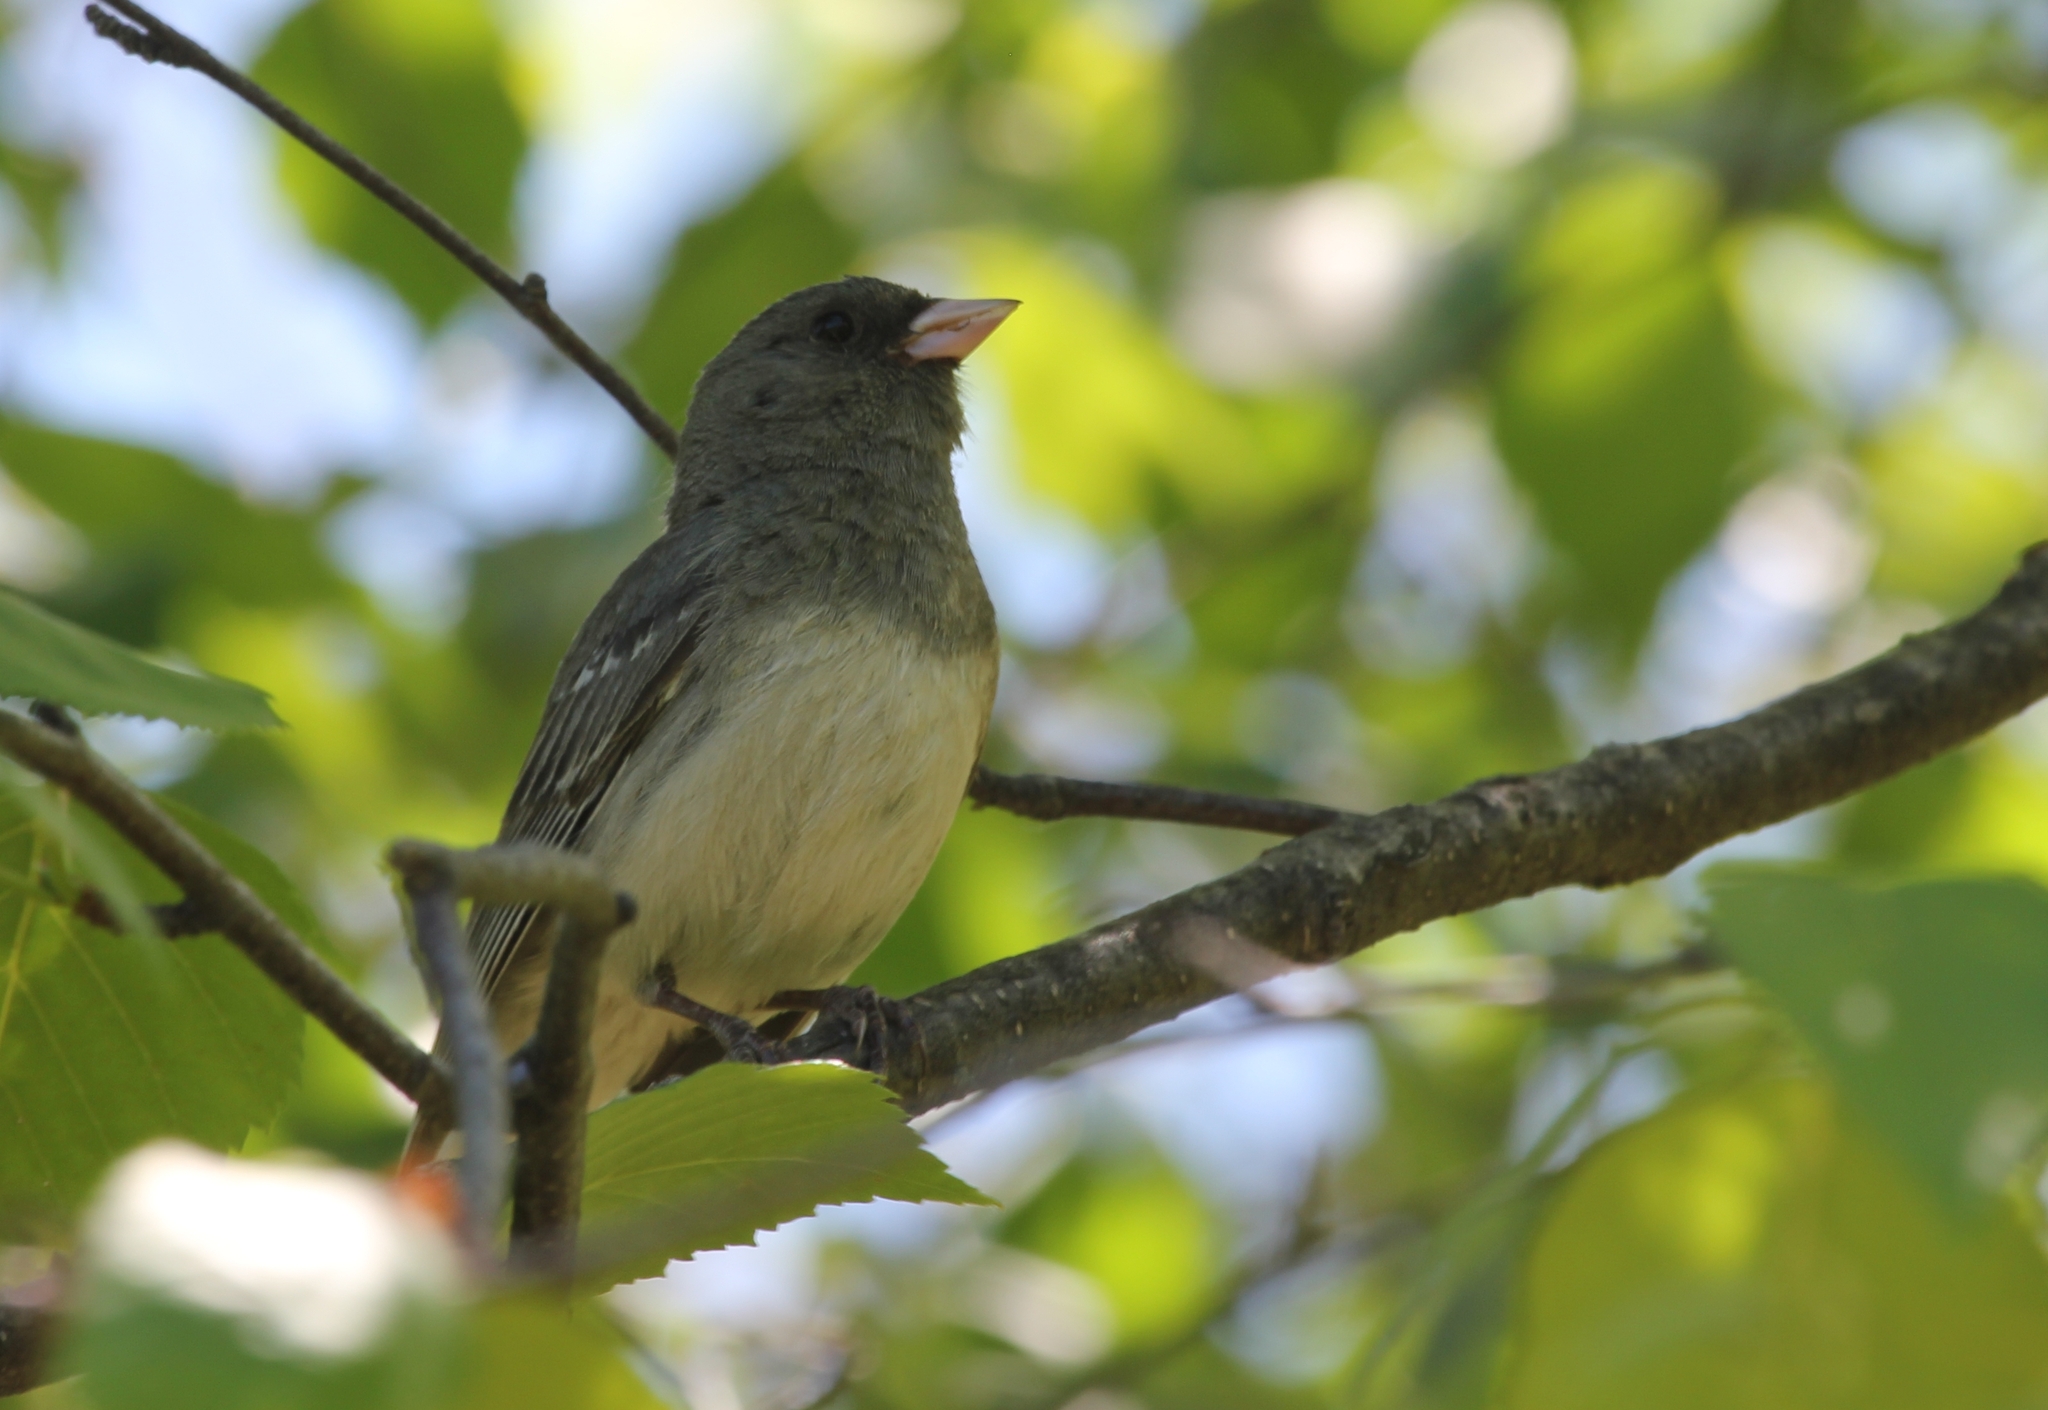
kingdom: Animalia
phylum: Chordata
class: Aves
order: Passeriformes
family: Passerellidae
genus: Junco
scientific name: Junco hyemalis
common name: Dark-eyed junco
